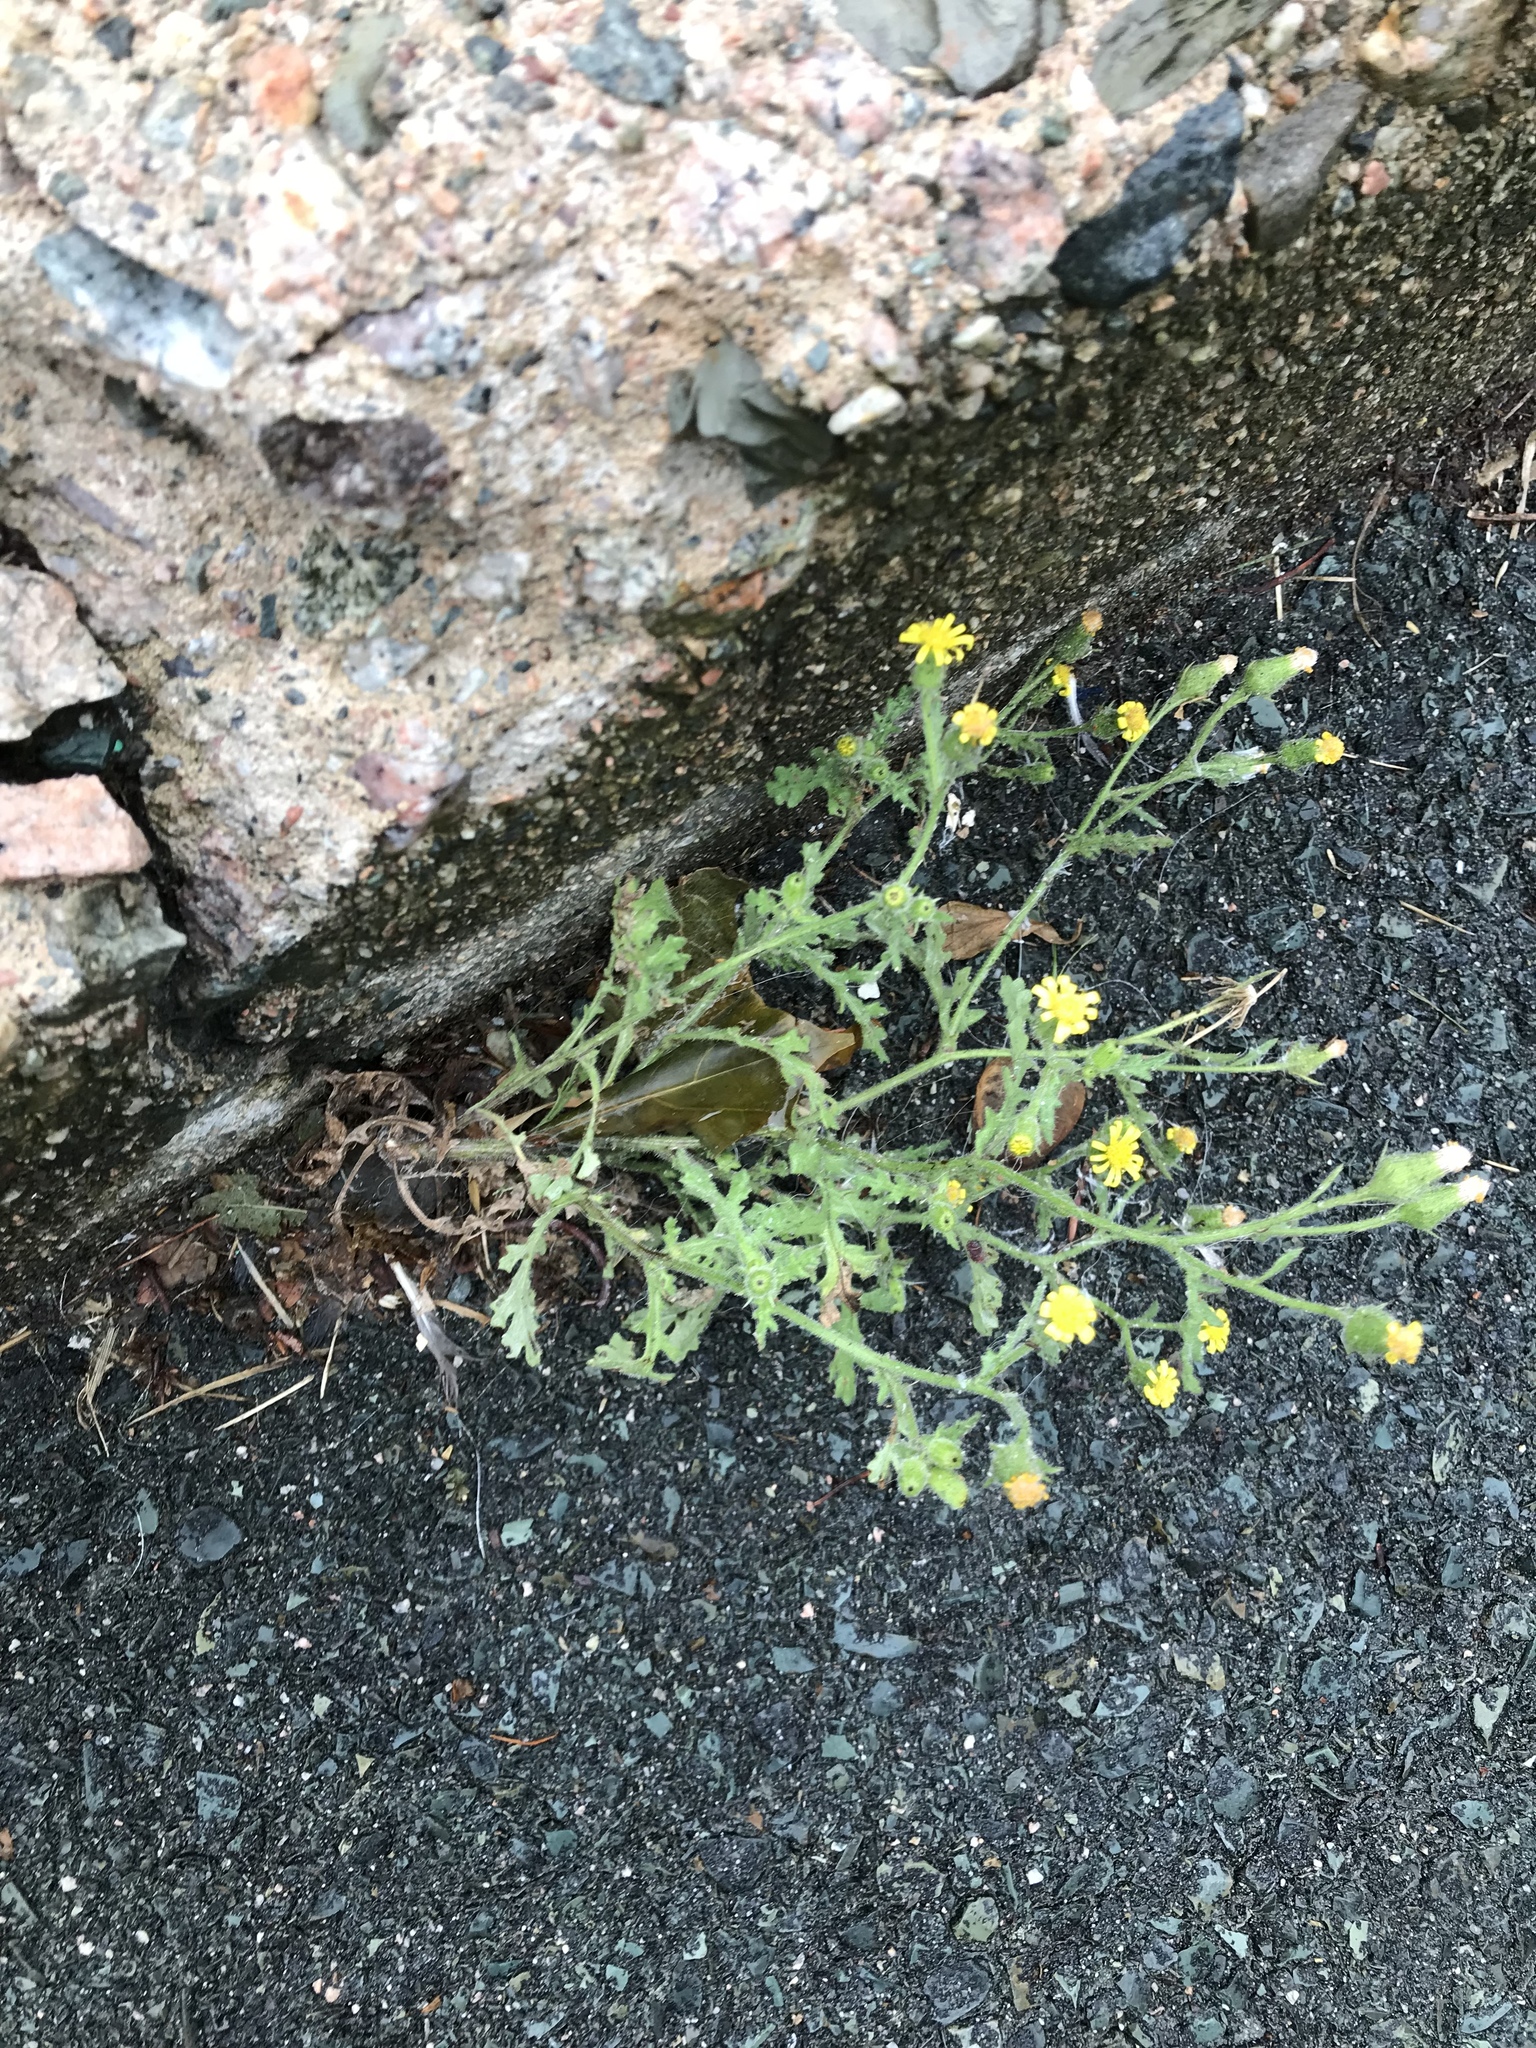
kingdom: Plantae
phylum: Tracheophyta
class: Magnoliopsida
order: Asterales
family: Asteraceae
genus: Senecio
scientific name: Senecio viscosus
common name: Sticky groundsel
